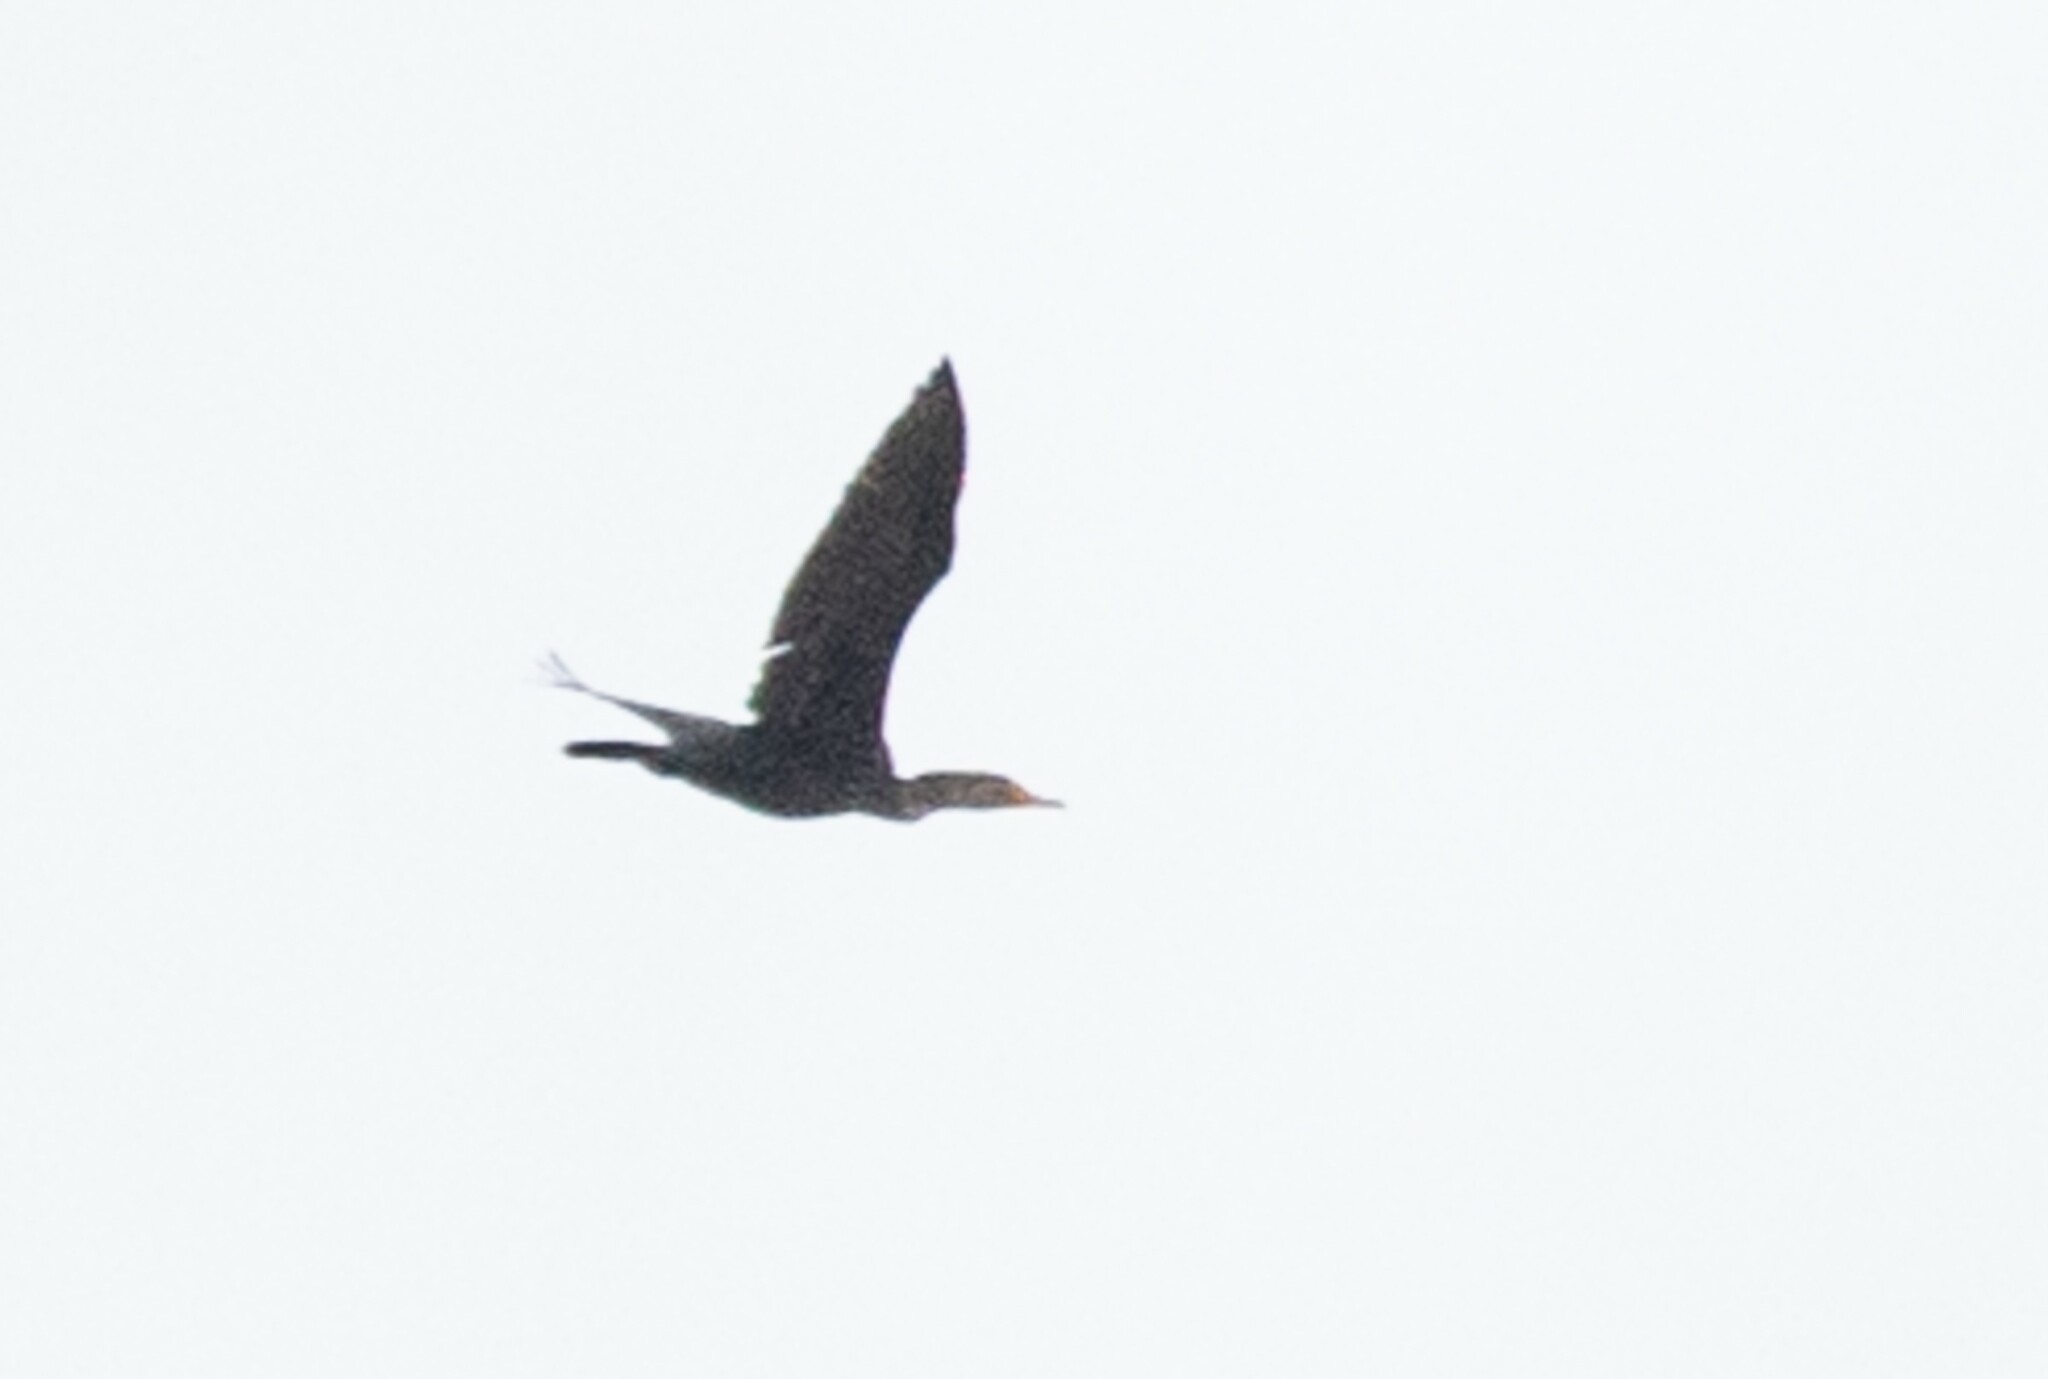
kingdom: Animalia
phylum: Chordata
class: Aves
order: Suliformes
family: Phalacrocoracidae
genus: Phalacrocorax
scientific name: Phalacrocorax auritus
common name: Double-crested cormorant
